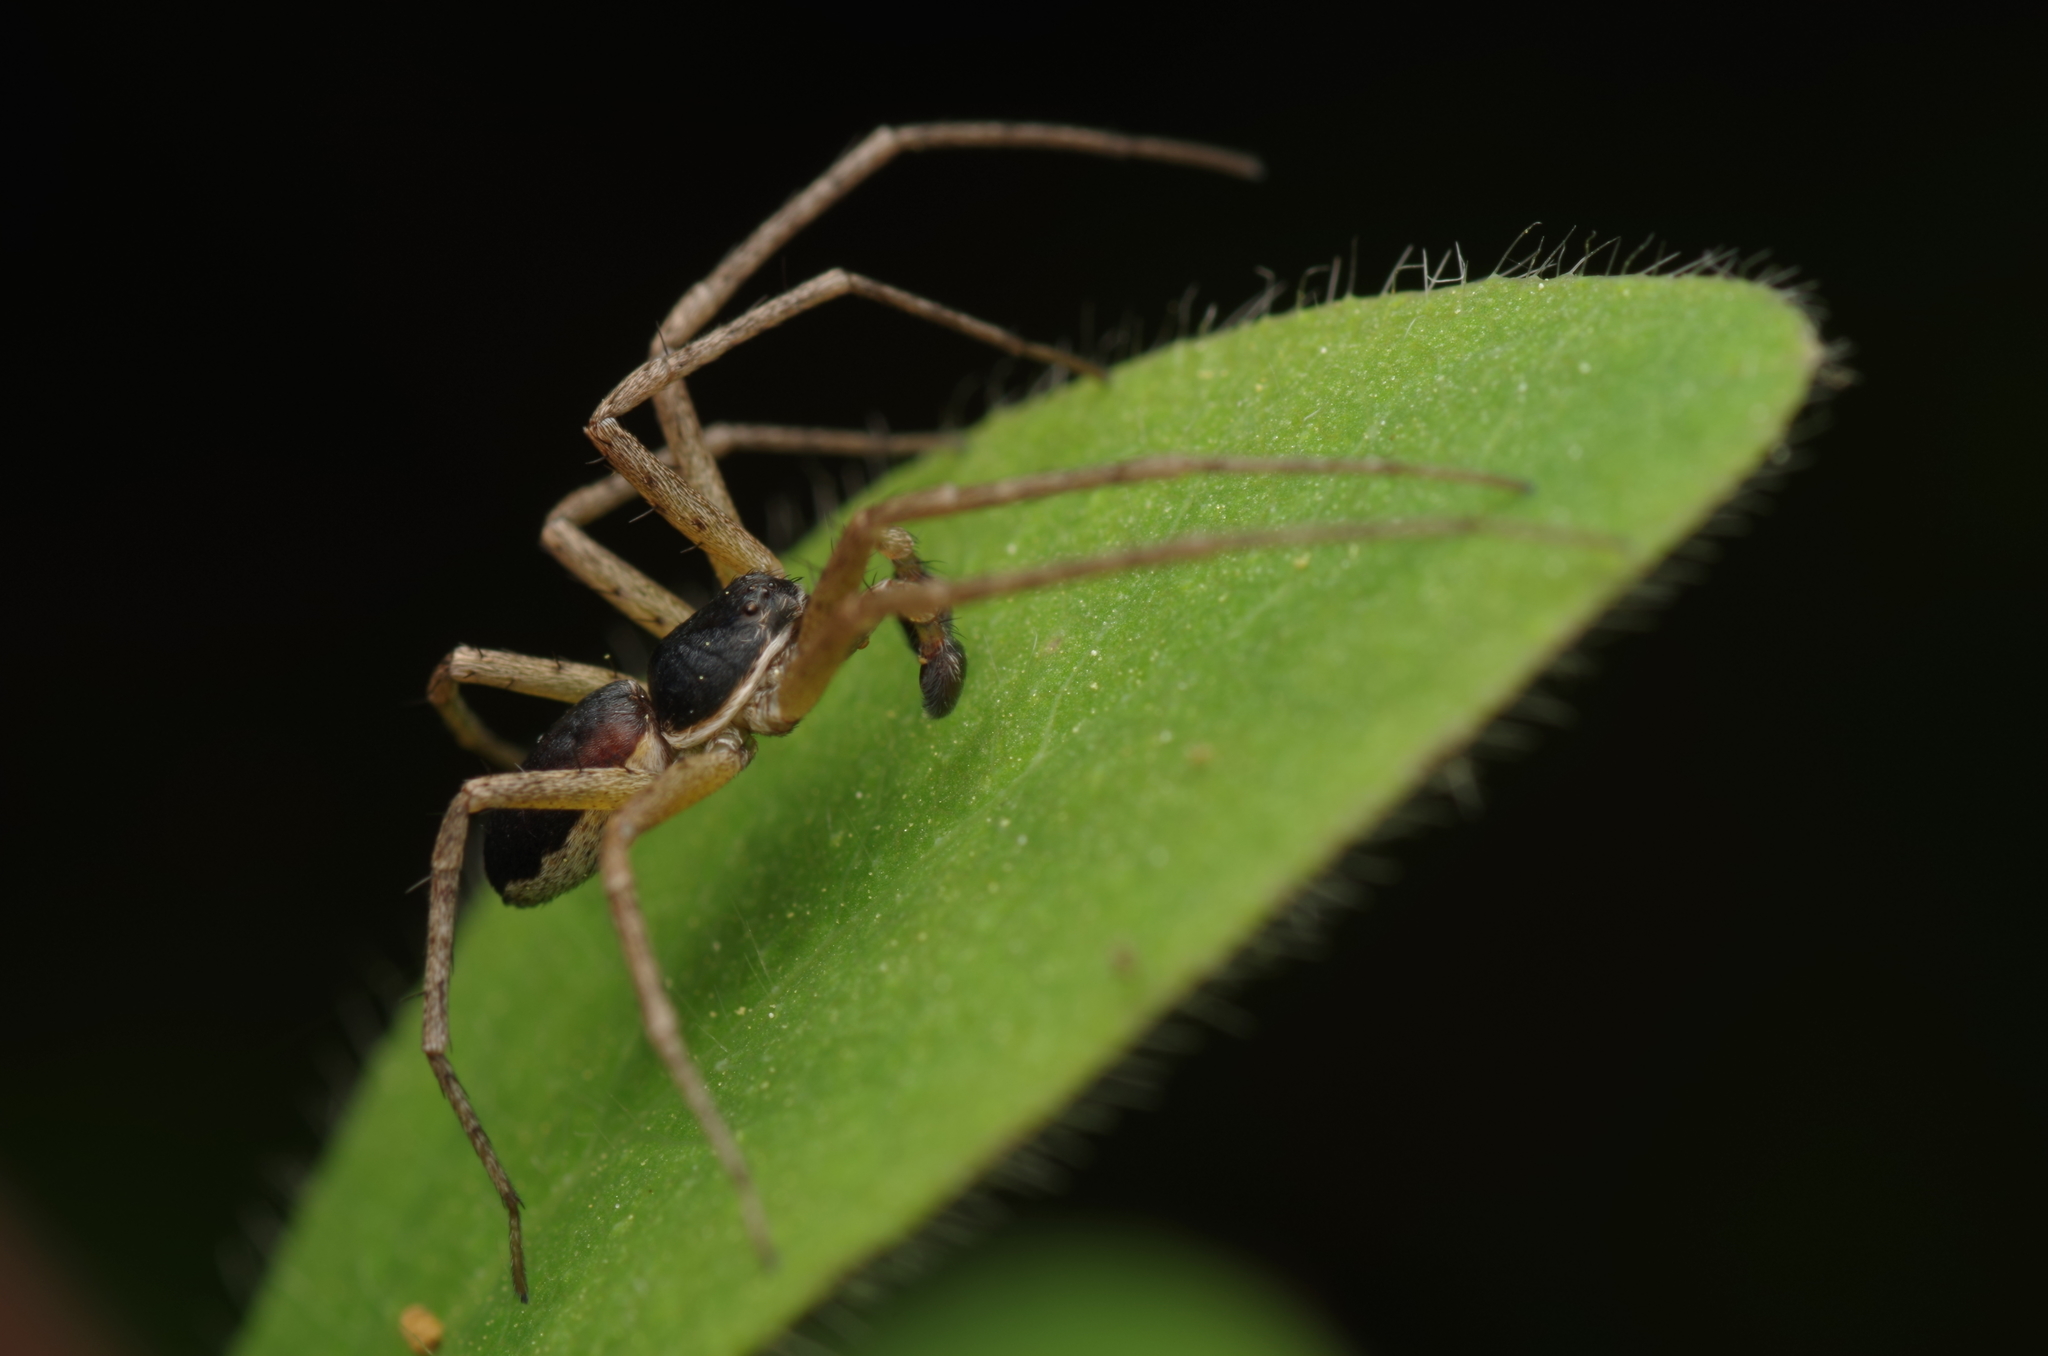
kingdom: Animalia
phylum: Arthropoda
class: Arachnida
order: Araneae
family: Philodromidae
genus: Philodromus
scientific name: Philodromus dispar
